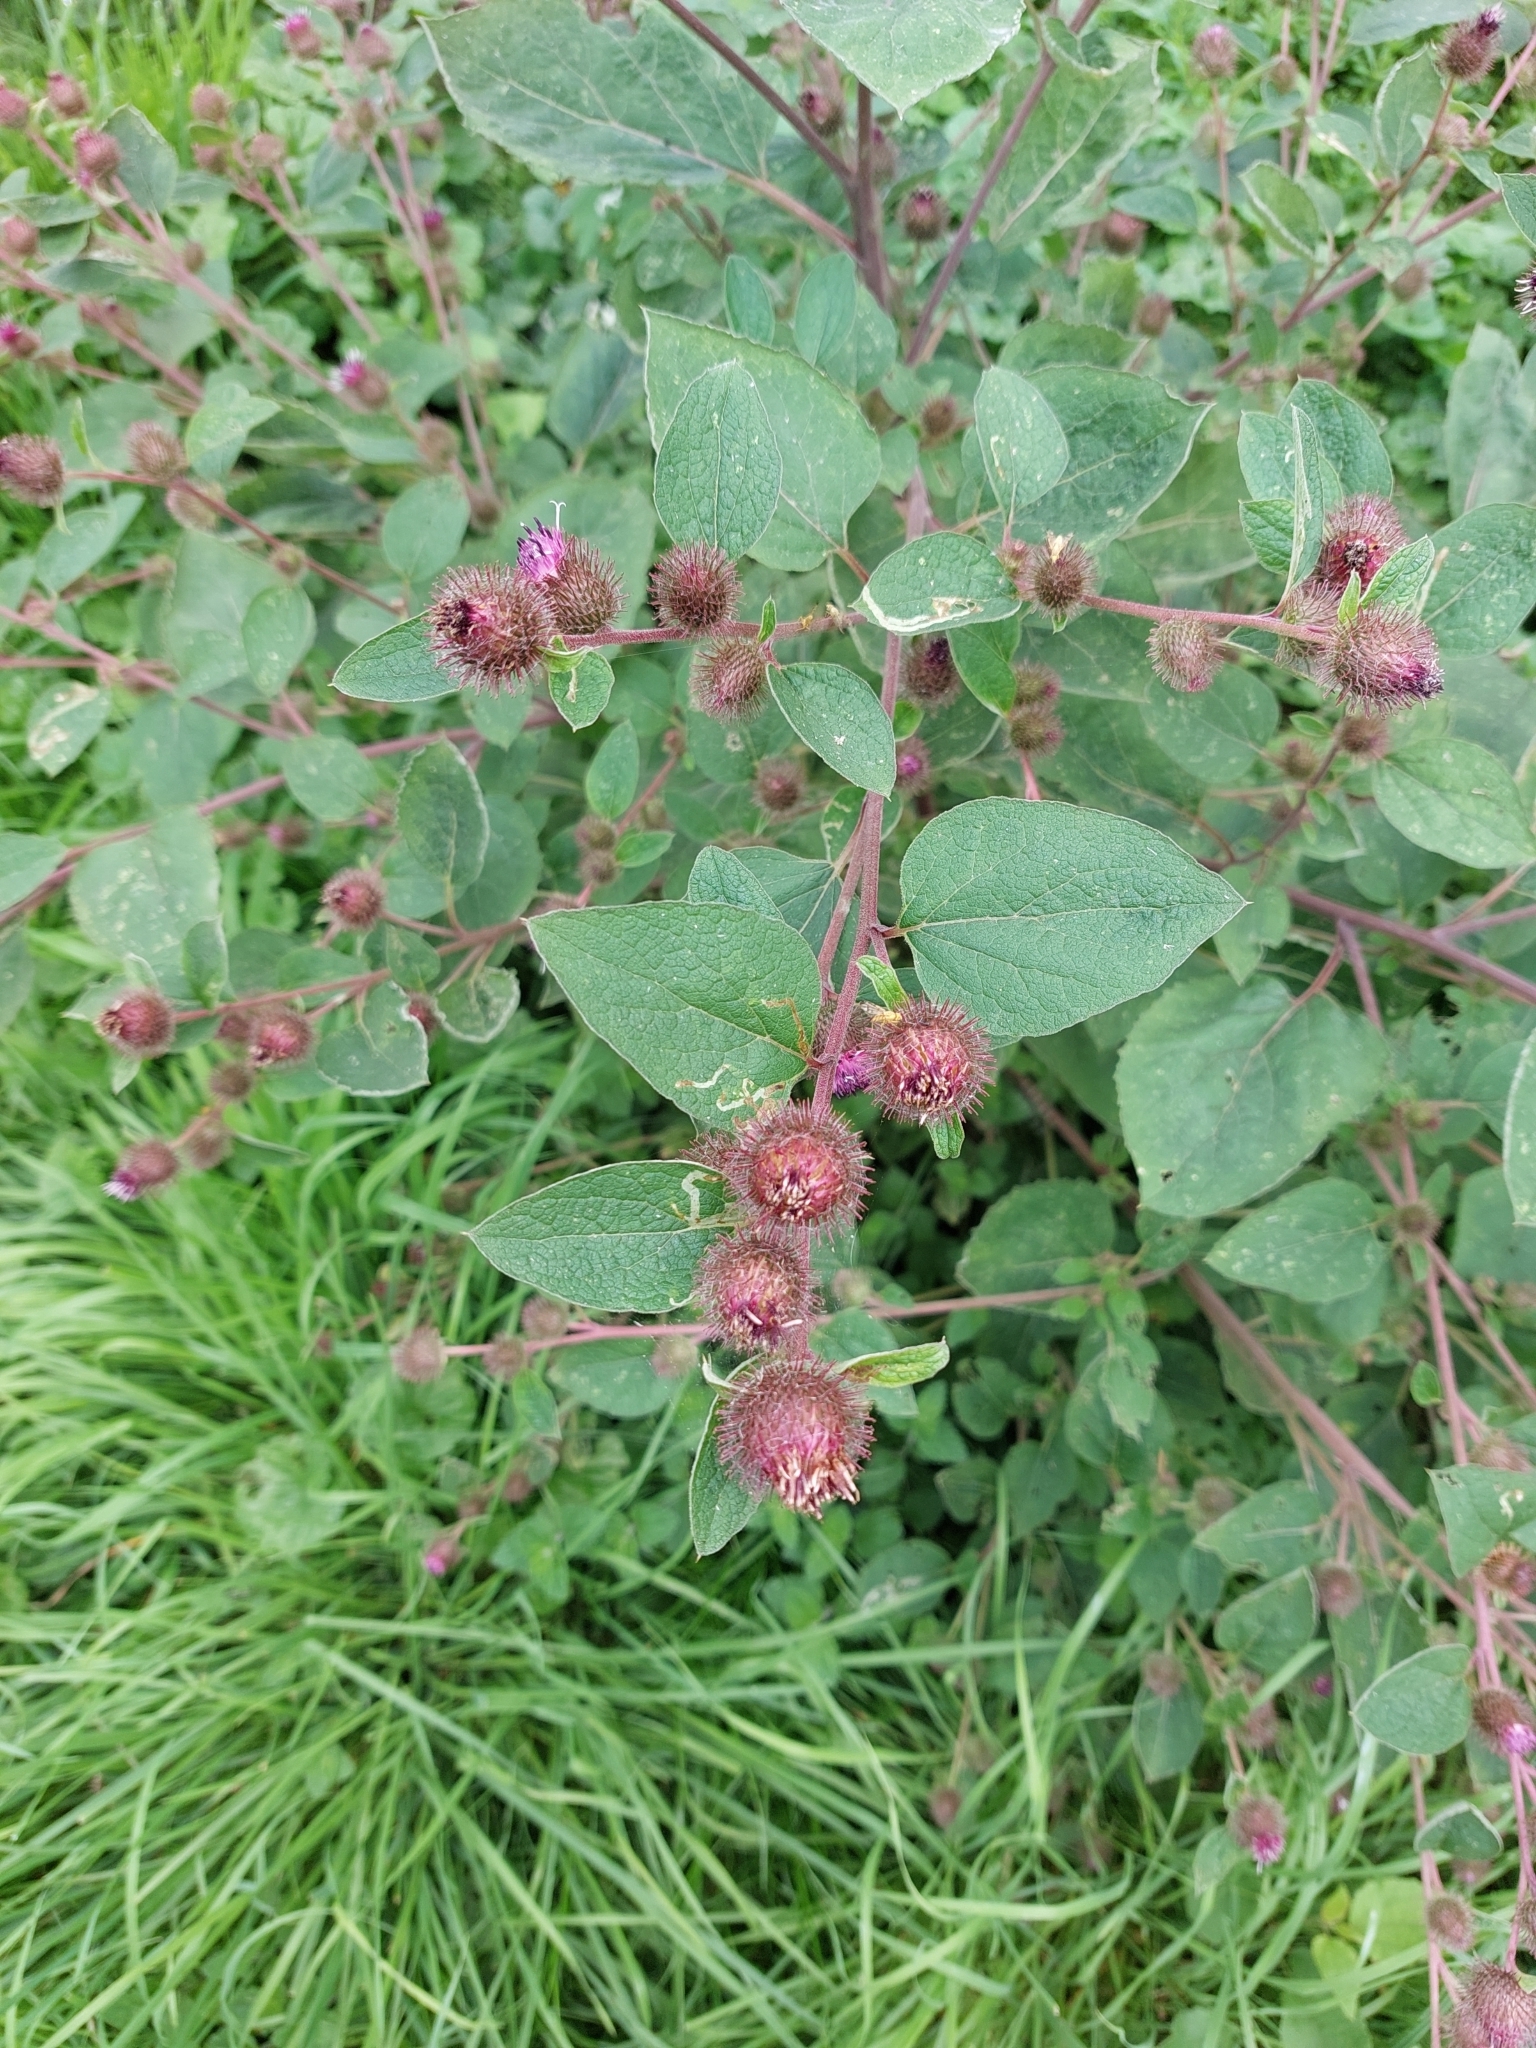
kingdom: Plantae
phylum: Tracheophyta
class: Magnoliopsida
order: Asterales
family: Asteraceae
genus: Arctium
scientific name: Arctium minus
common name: Lesser burdock
